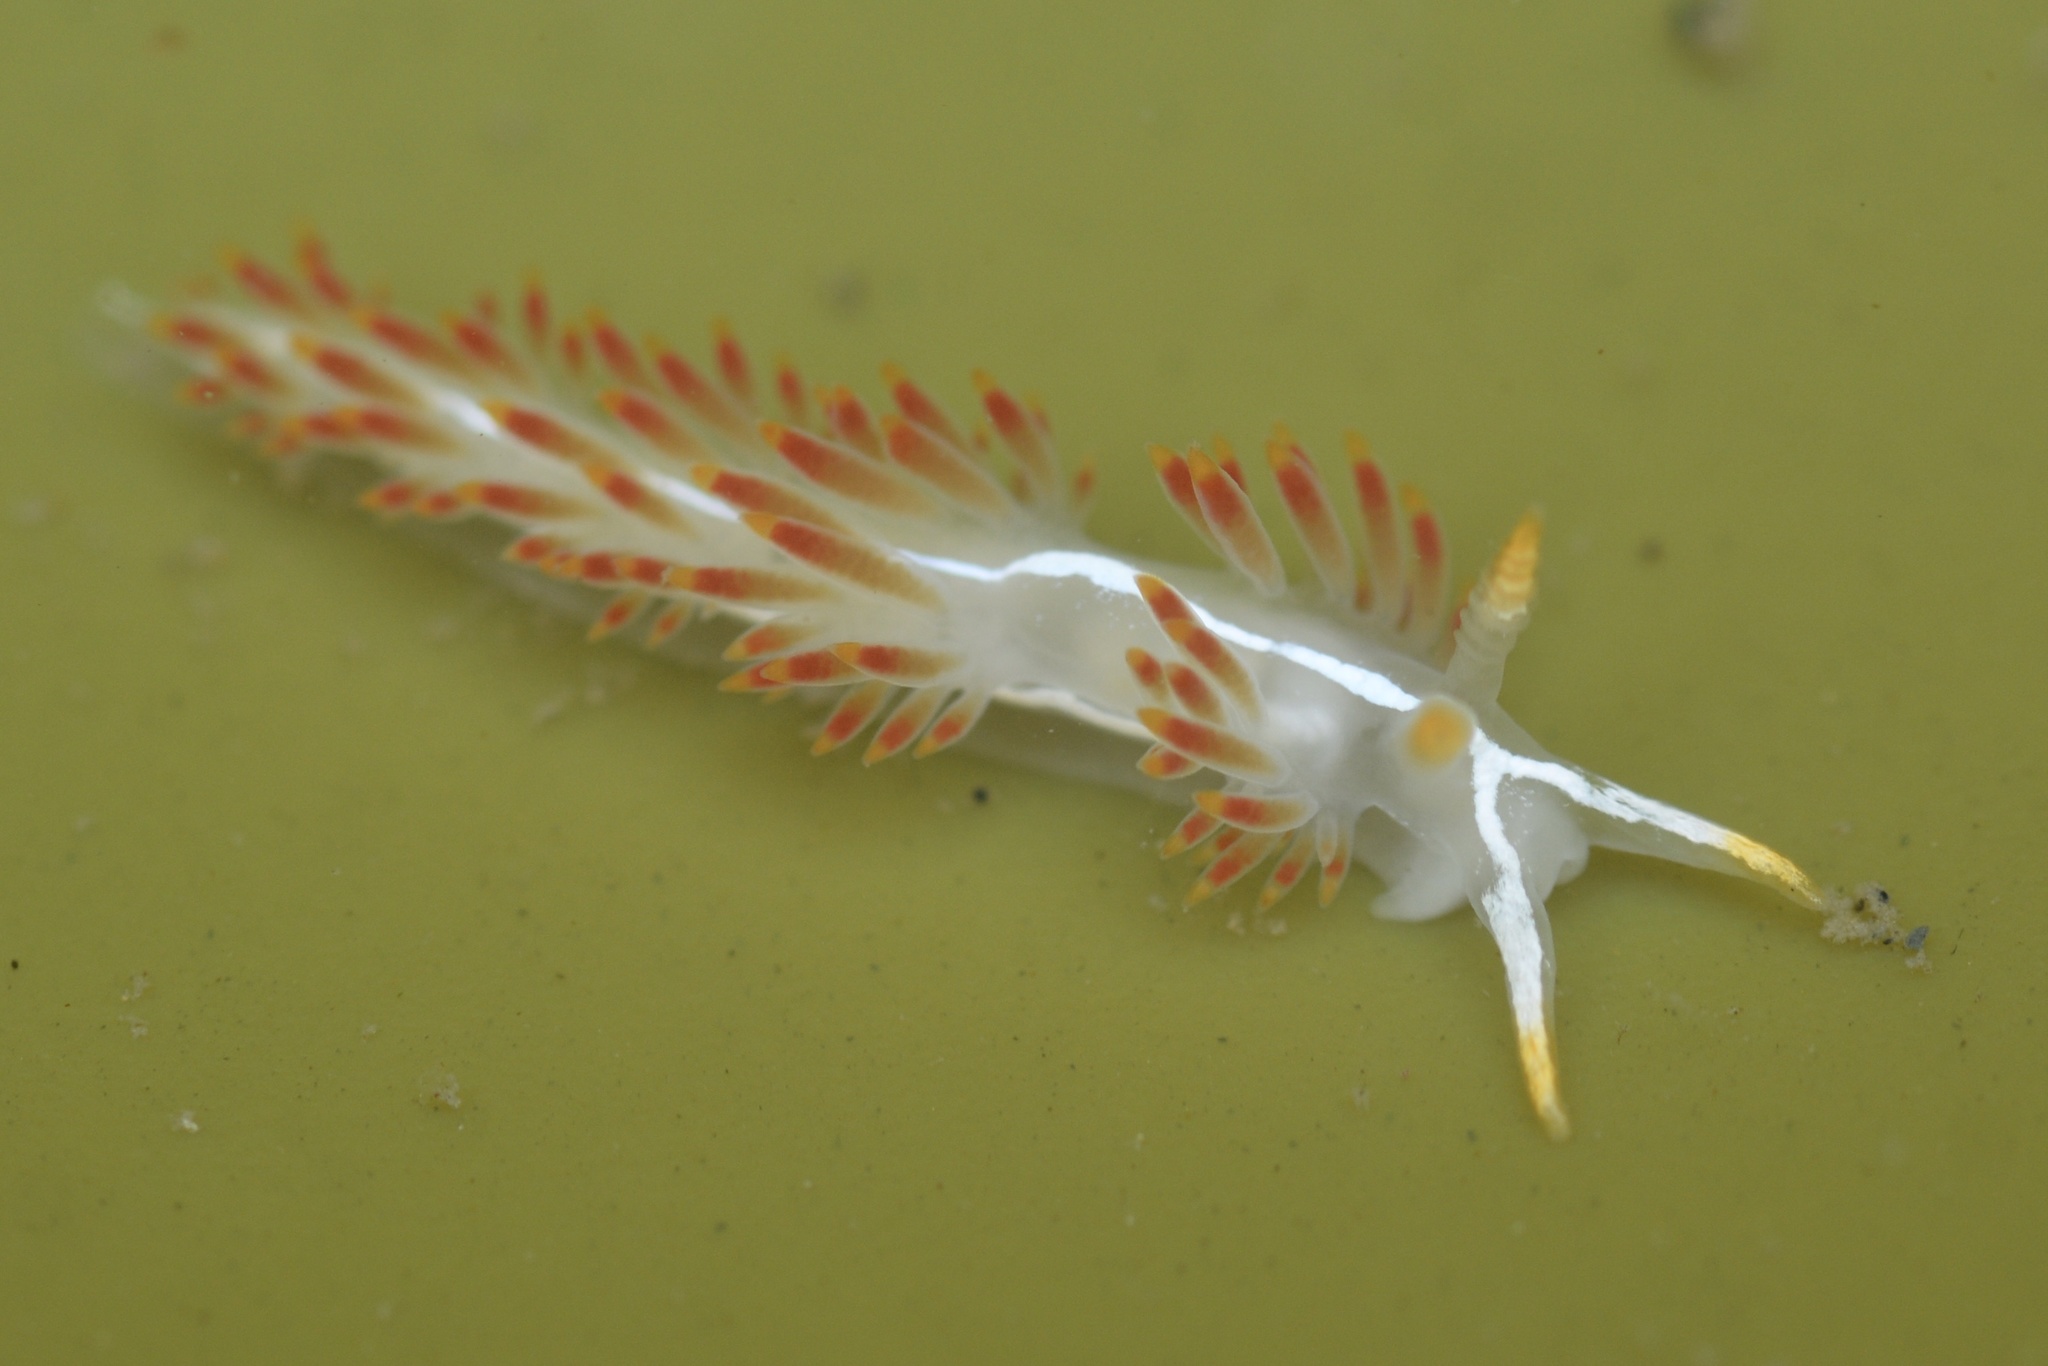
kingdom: Animalia
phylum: Mollusca
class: Gastropoda
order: Nudibranchia
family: Coryphellidae
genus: Coryphella
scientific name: Coryphella trilineata
